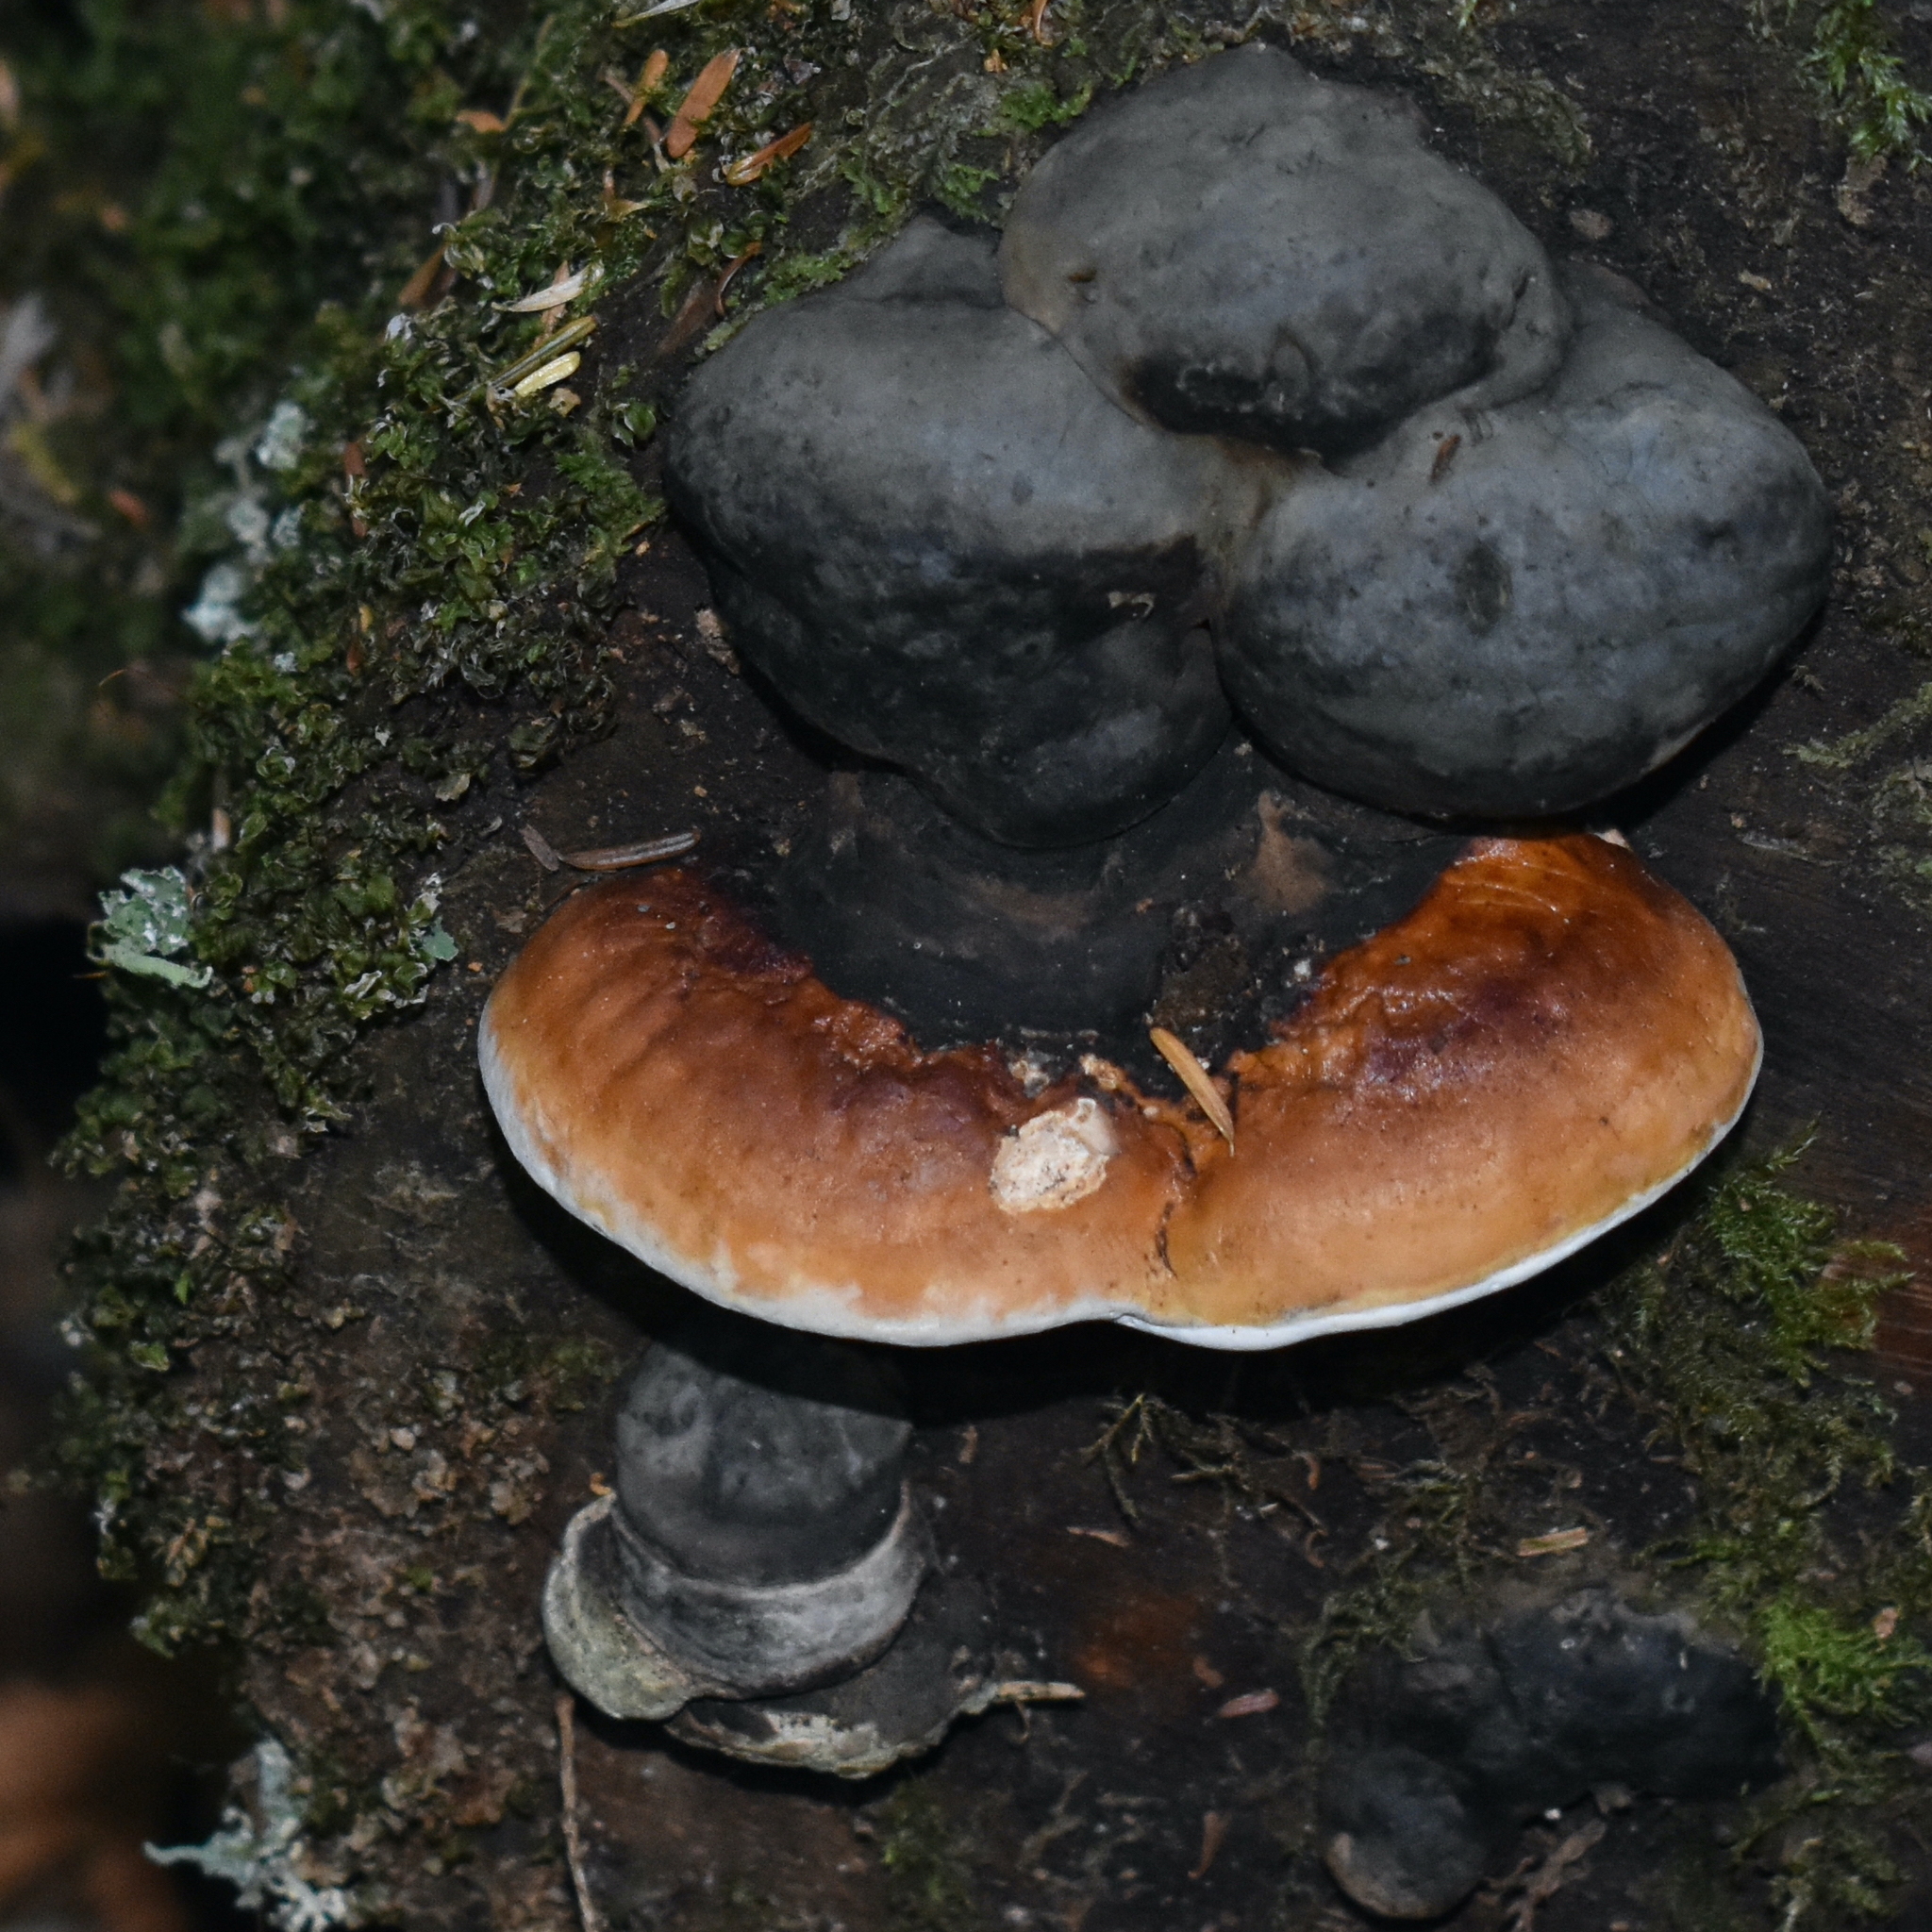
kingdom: Fungi
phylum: Basidiomycota
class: Agaricomycetes
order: Polyporales
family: Fomitopsidaceae
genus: Fomitopsis
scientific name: Fomitopsis mounceae
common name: Northern red belt
